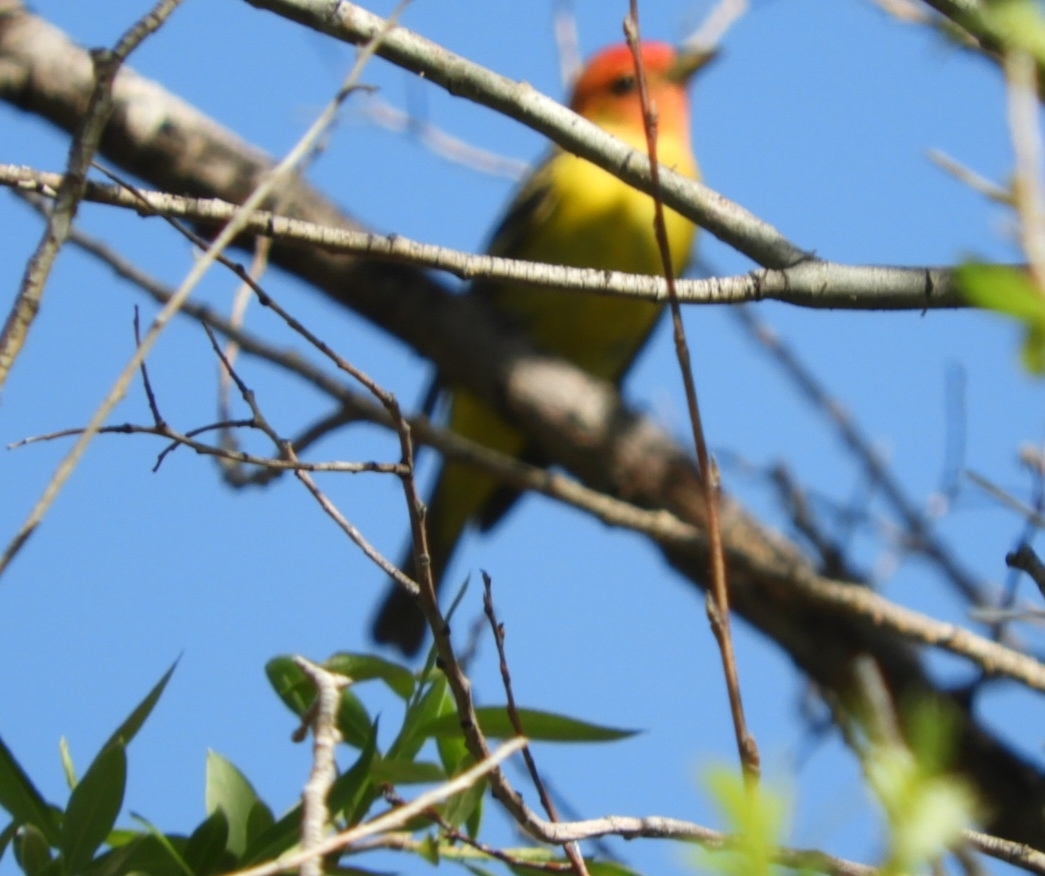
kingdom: Animalia
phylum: Chordata
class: Aves
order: Passeriformes
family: Cardinalidae
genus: Piranga
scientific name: Piranga ludoviciana
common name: Western tanager
